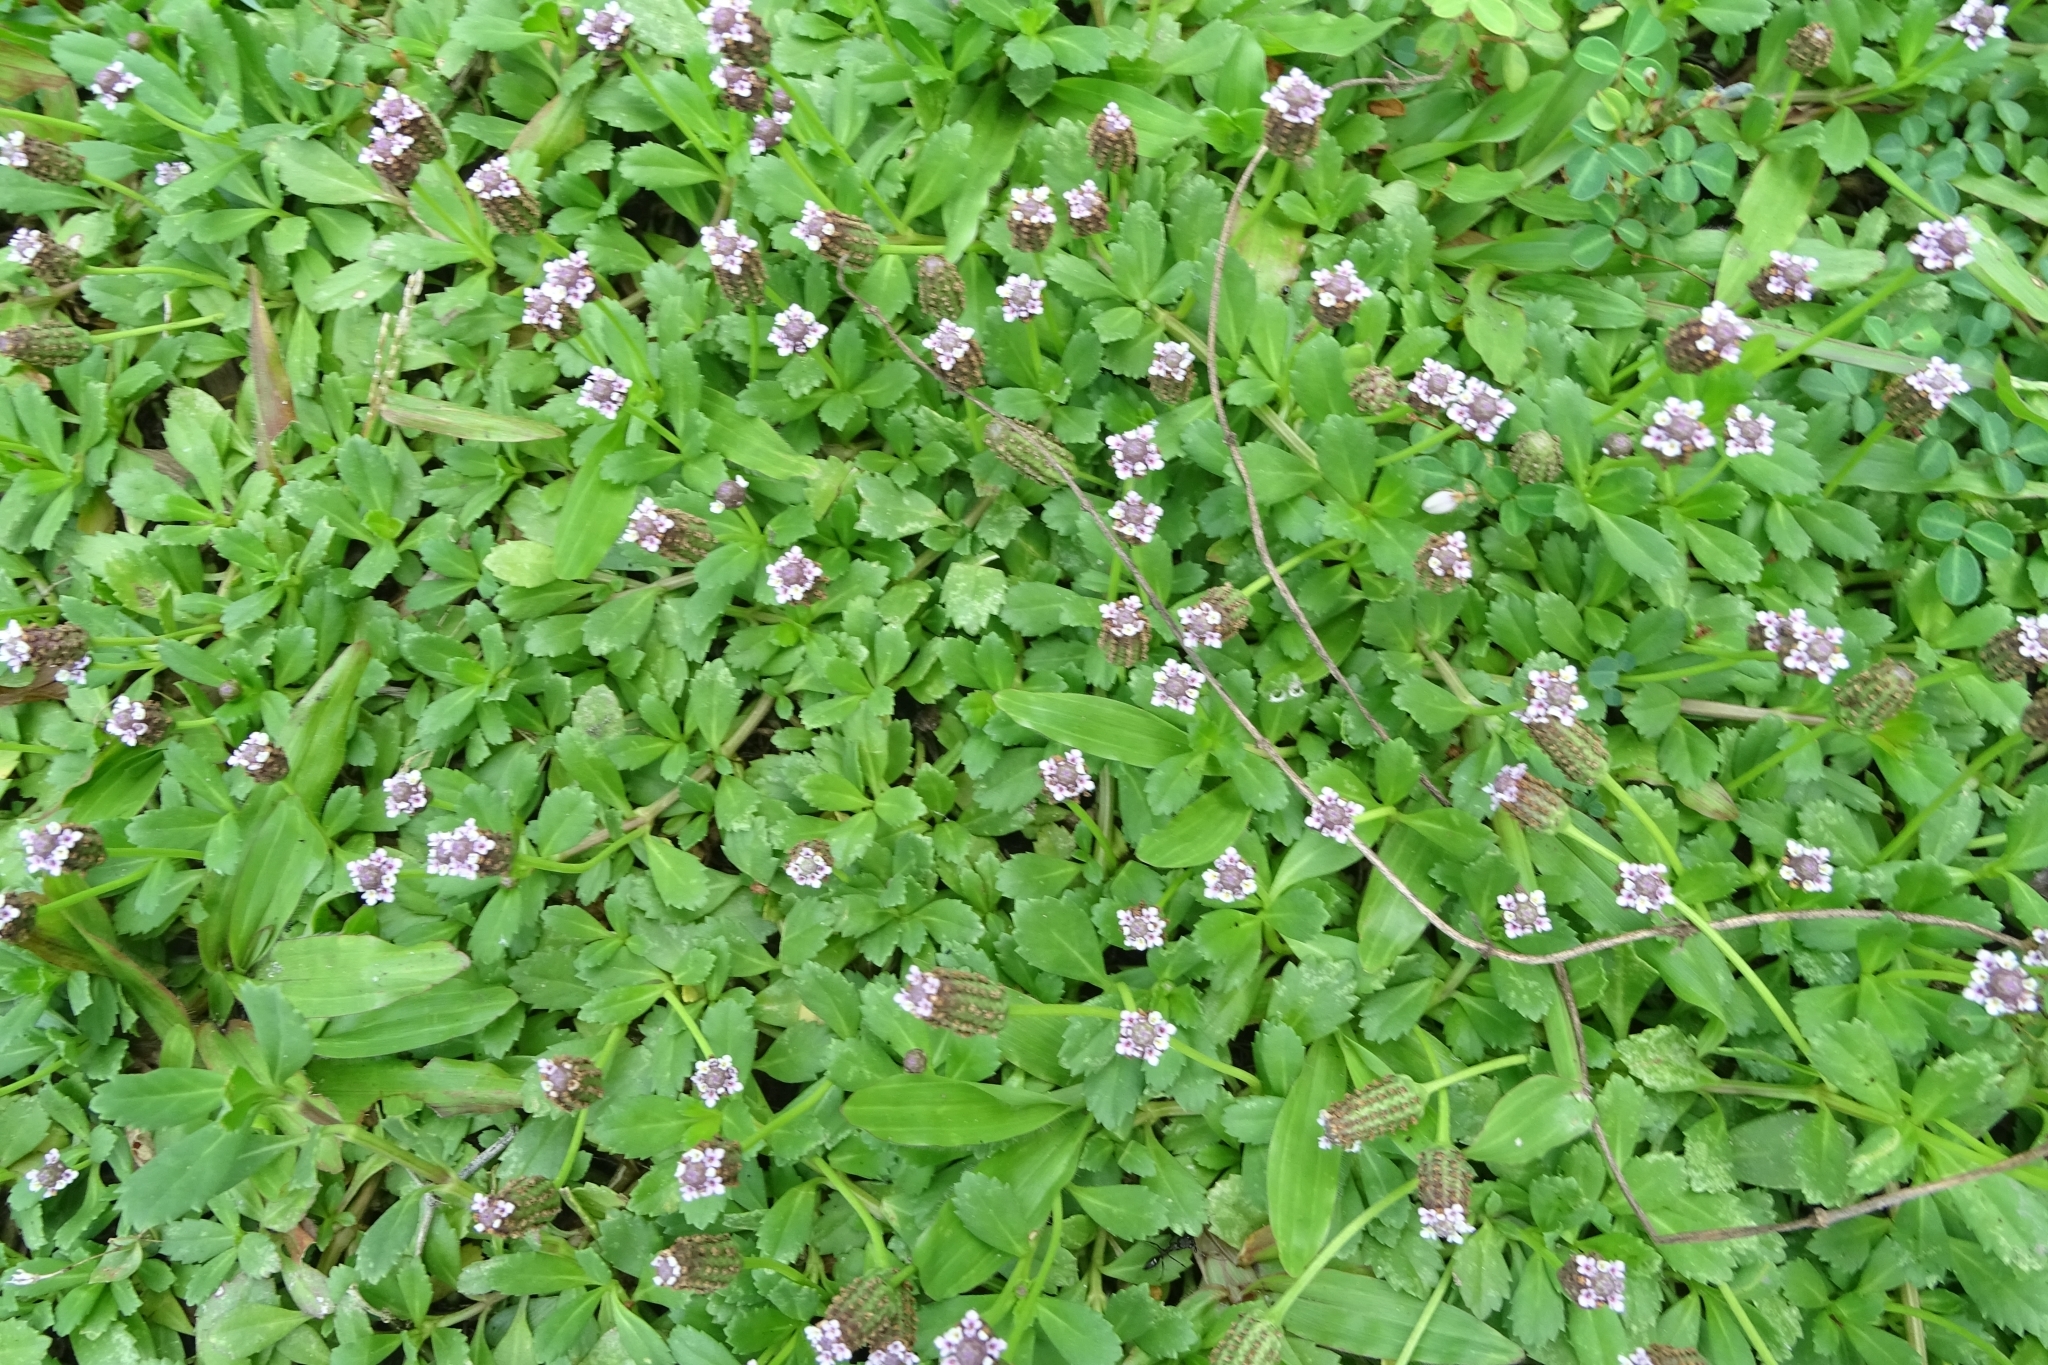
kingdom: Plantae
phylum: Tracheophyta
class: Magnoliopsida
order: Lamiales
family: Verbenaceae
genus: Phyla
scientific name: Phyla nodiflora
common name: Frogfruit
